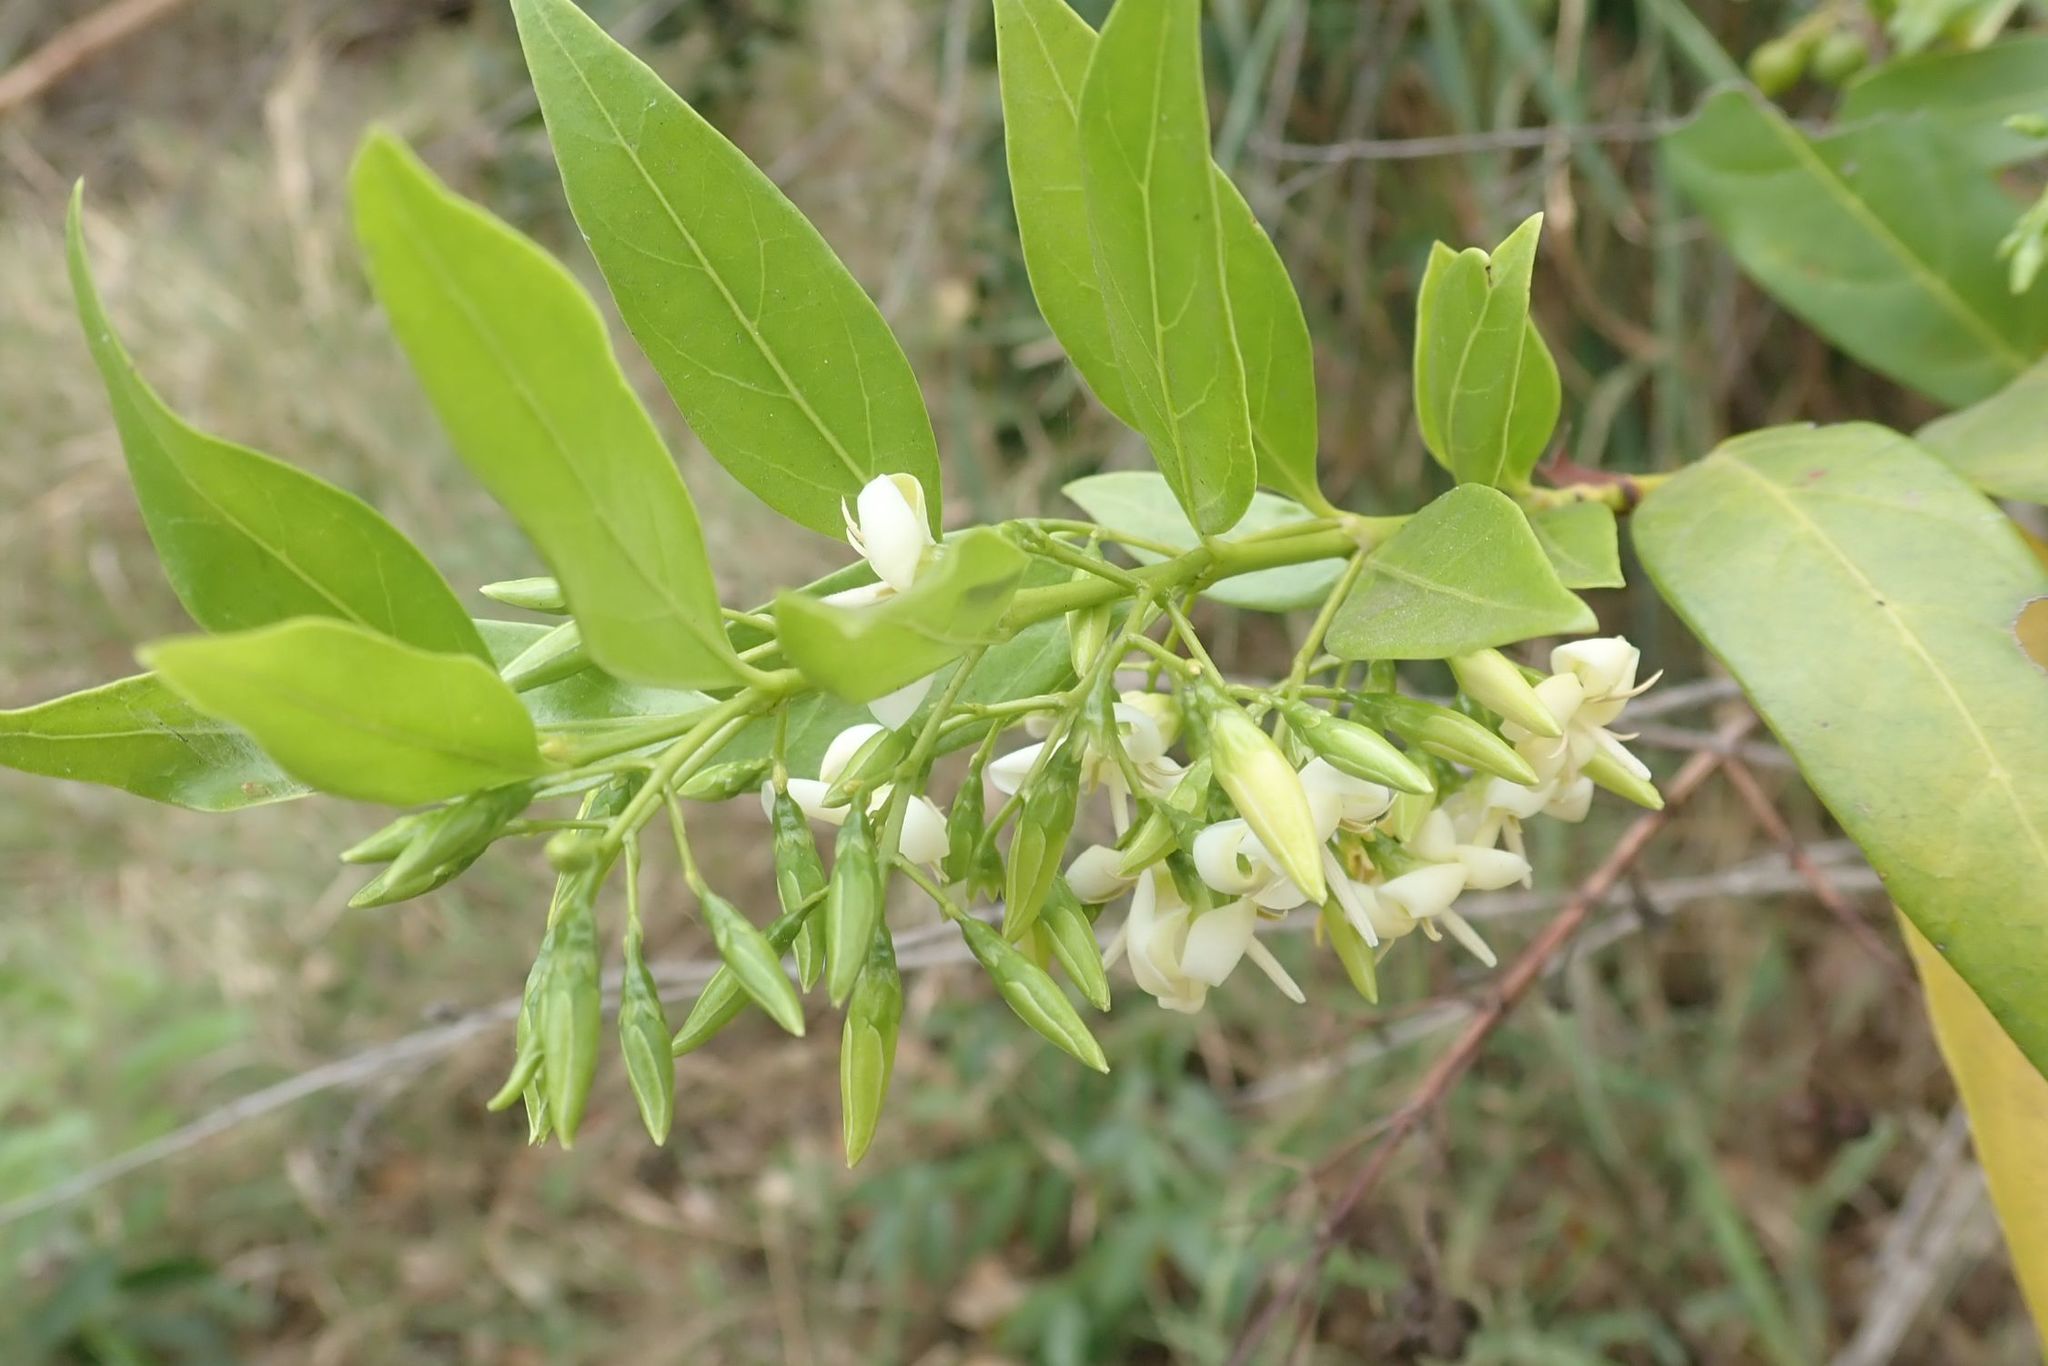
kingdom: Plantae
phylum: Tracheophyta
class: Magnoliopsida
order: Gentianales
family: Rubiaceae
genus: Kraussia
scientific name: Kraussia floribunda
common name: Rhino-coffee
